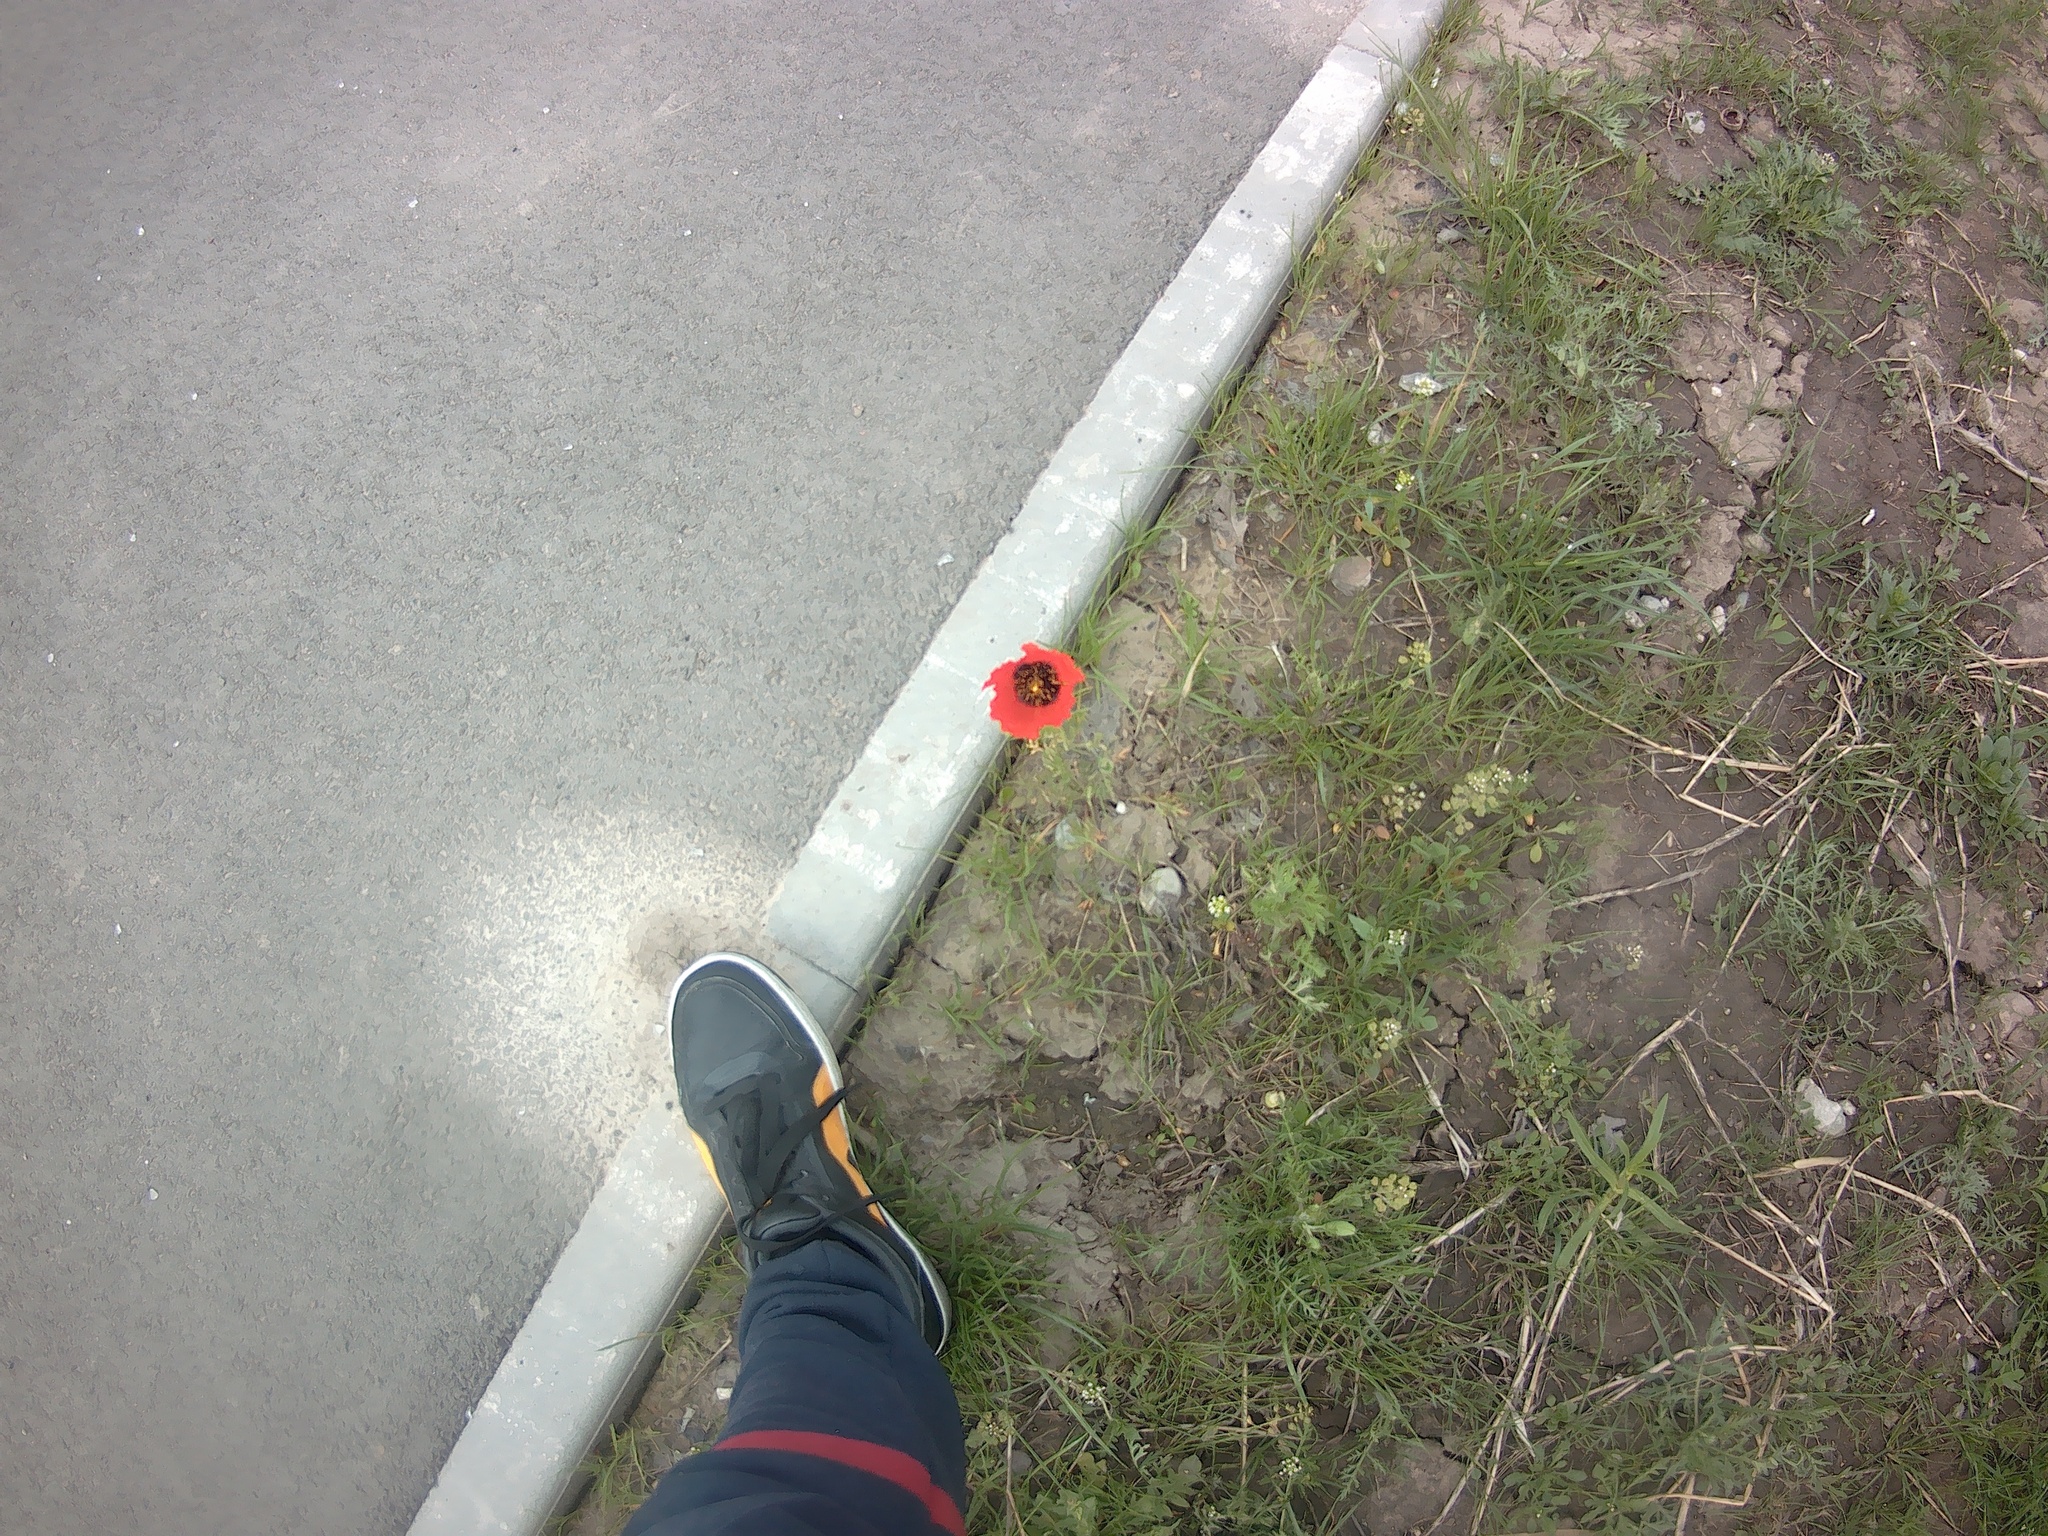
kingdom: Plantae
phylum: Tracheophyta
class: Magnoliopsida
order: Ranunculales
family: Papaveraceae
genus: Roemeria
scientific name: Roemeria refracta
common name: Spotted asian poppy
